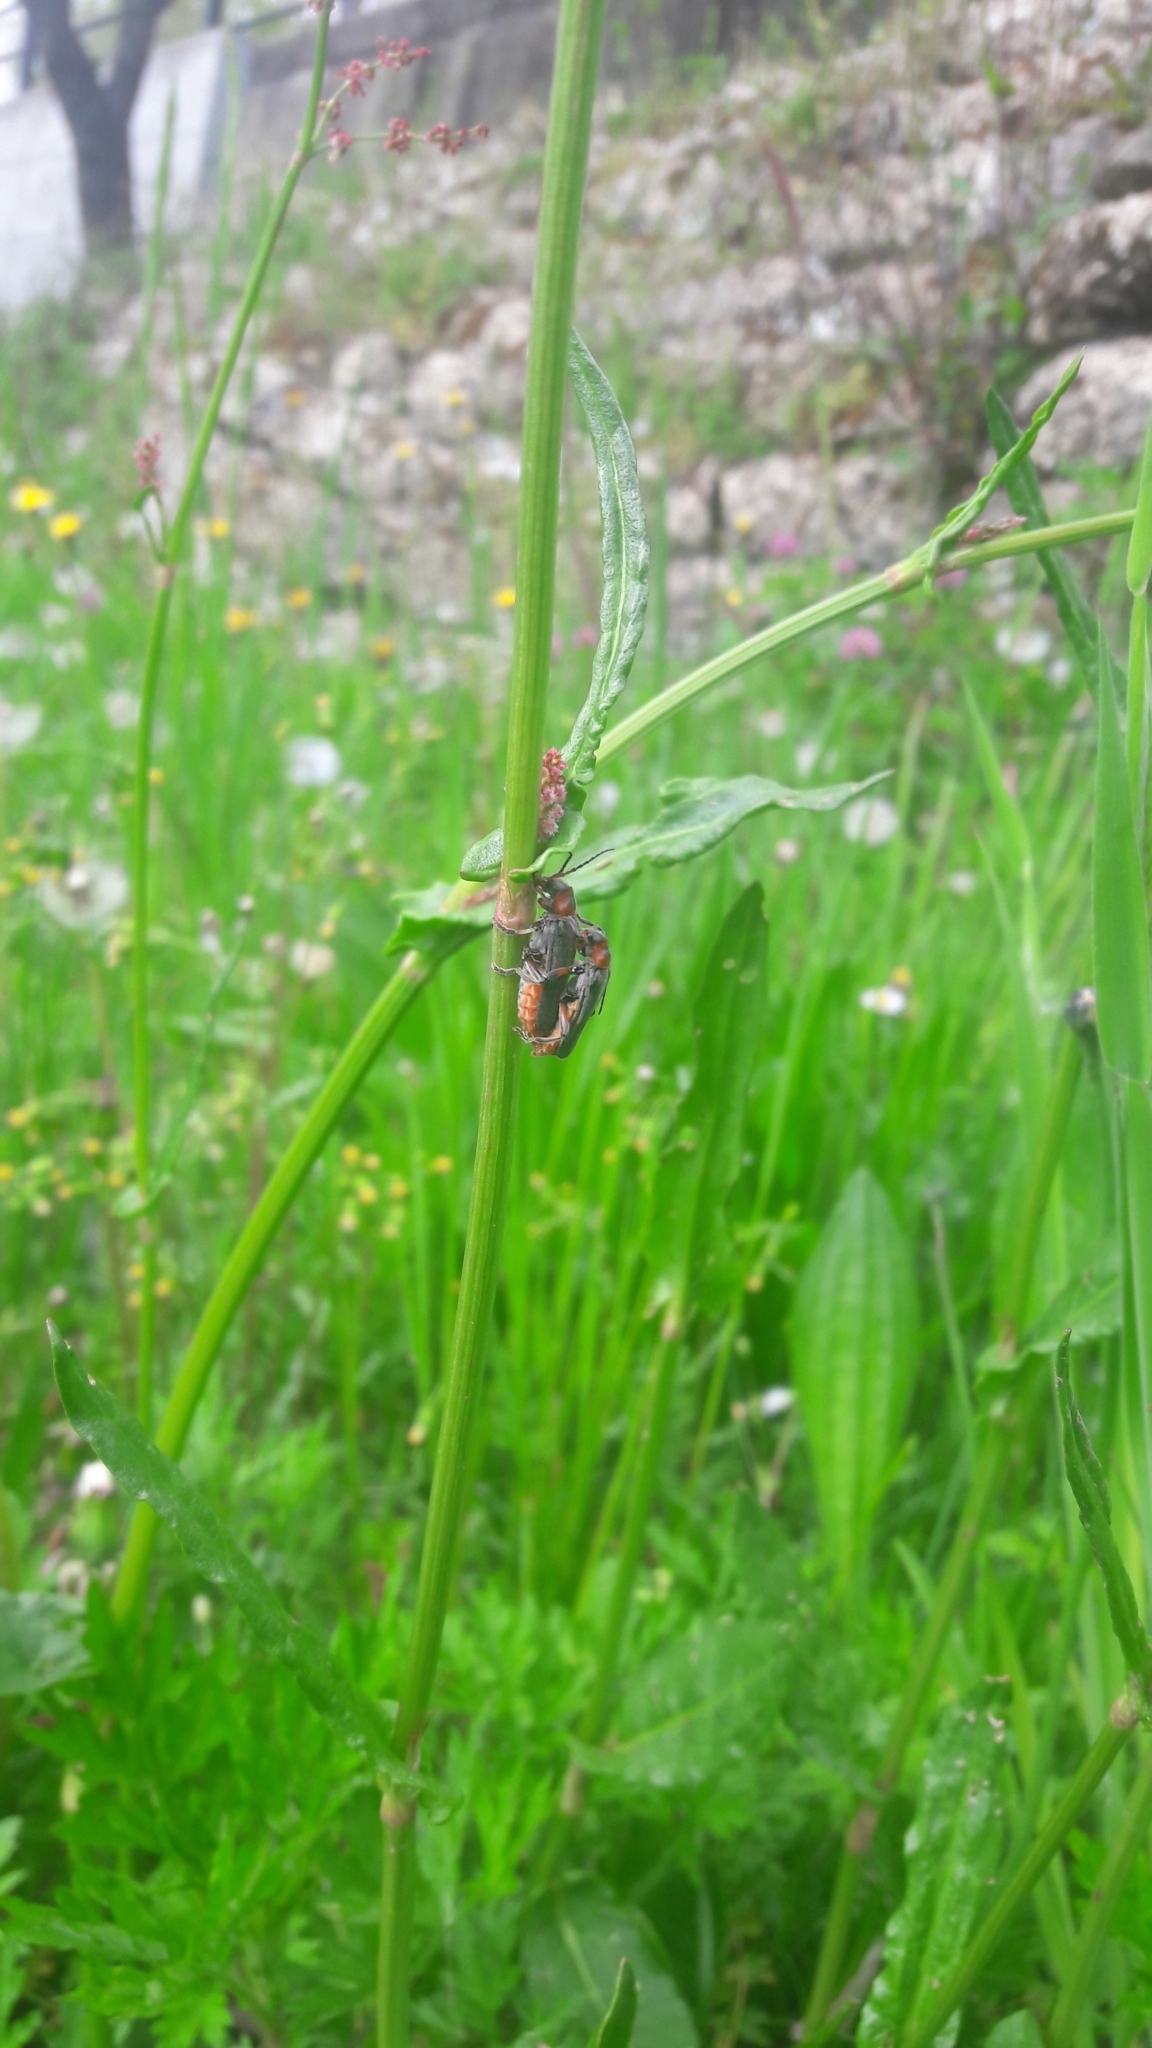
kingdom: Animalia
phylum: Arthropoda
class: Insecta
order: Coleoptera
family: Cantharidae
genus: Cantharis
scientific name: Cantharis rustica
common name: Soldier beetle
